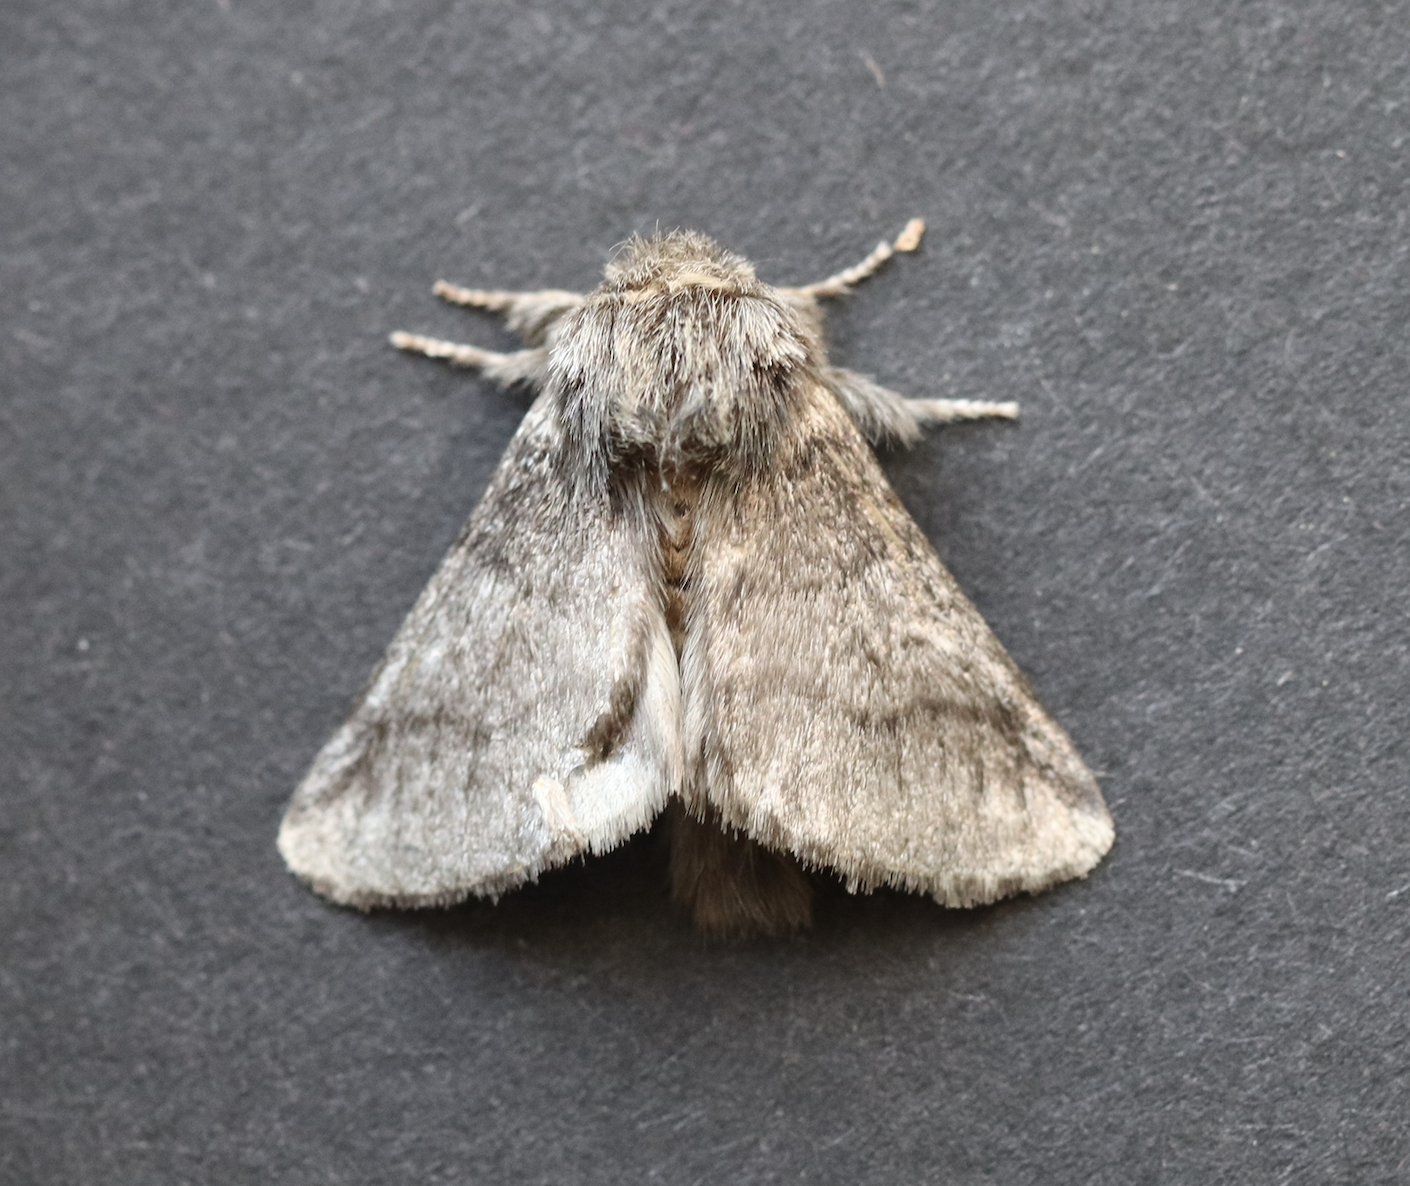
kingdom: Animalia
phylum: Arthropoda
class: Insecta
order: Lepidoptera
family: Notodontidae
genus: Thaumetopoea
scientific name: Thaumetopoea processionea
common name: Oak processionea
